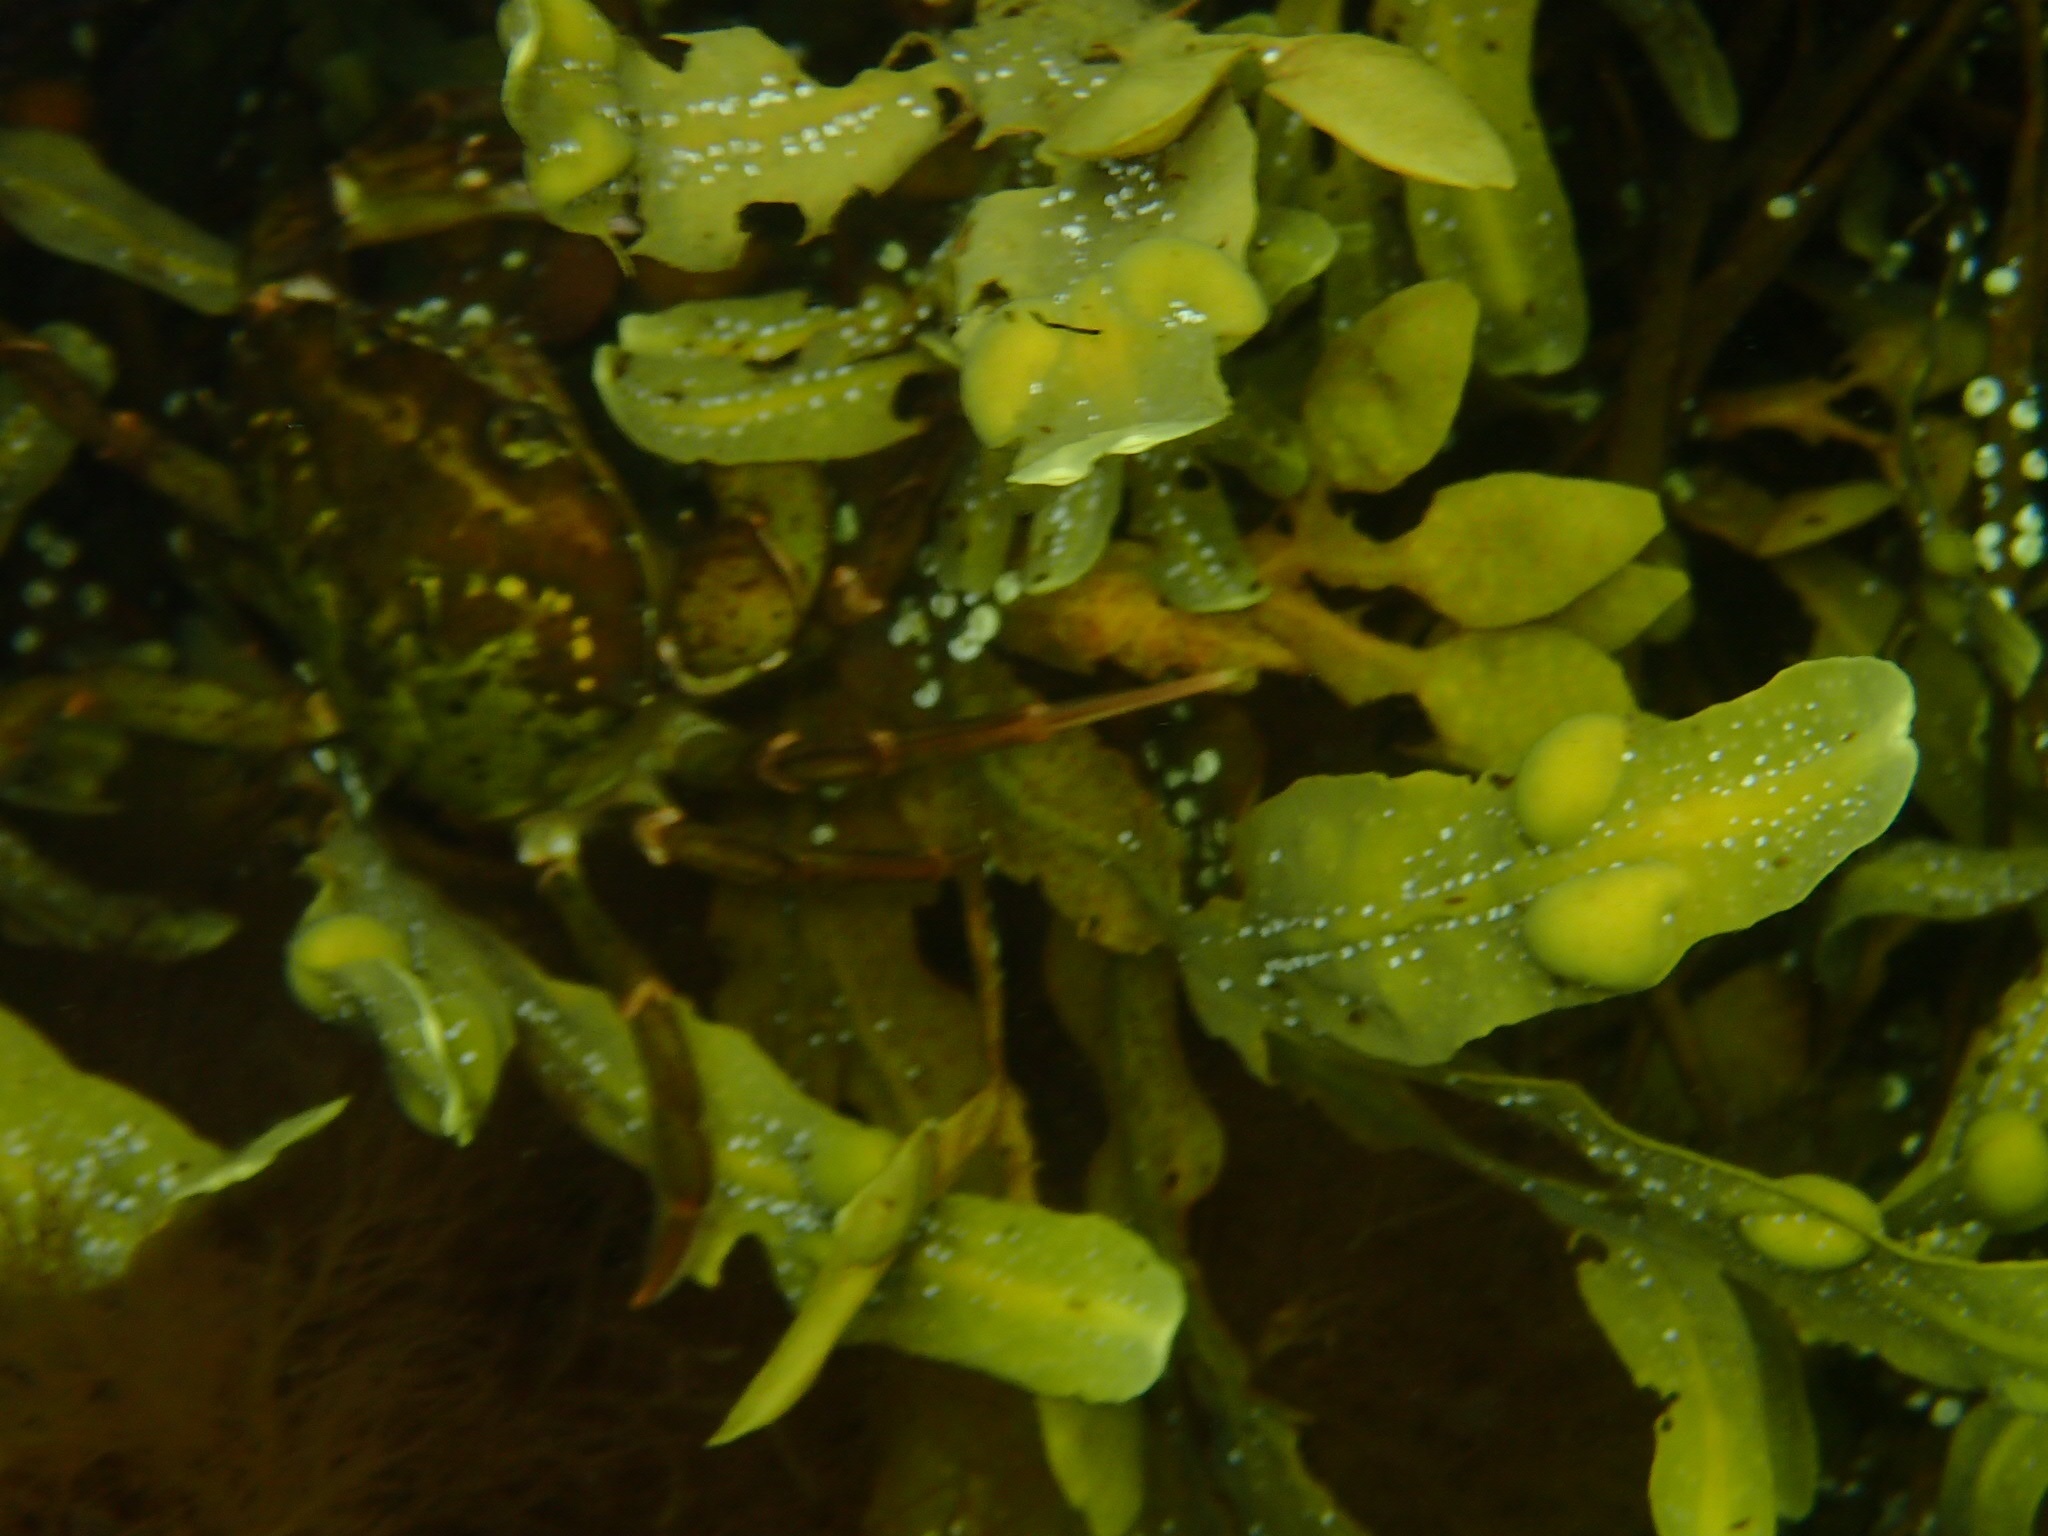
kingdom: Chromista
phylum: Ochrophyta
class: Phaeophyceae
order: Fucales
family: Fucaceae
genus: Fucus
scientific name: Fucus vesiculosus
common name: Bladder wrack
